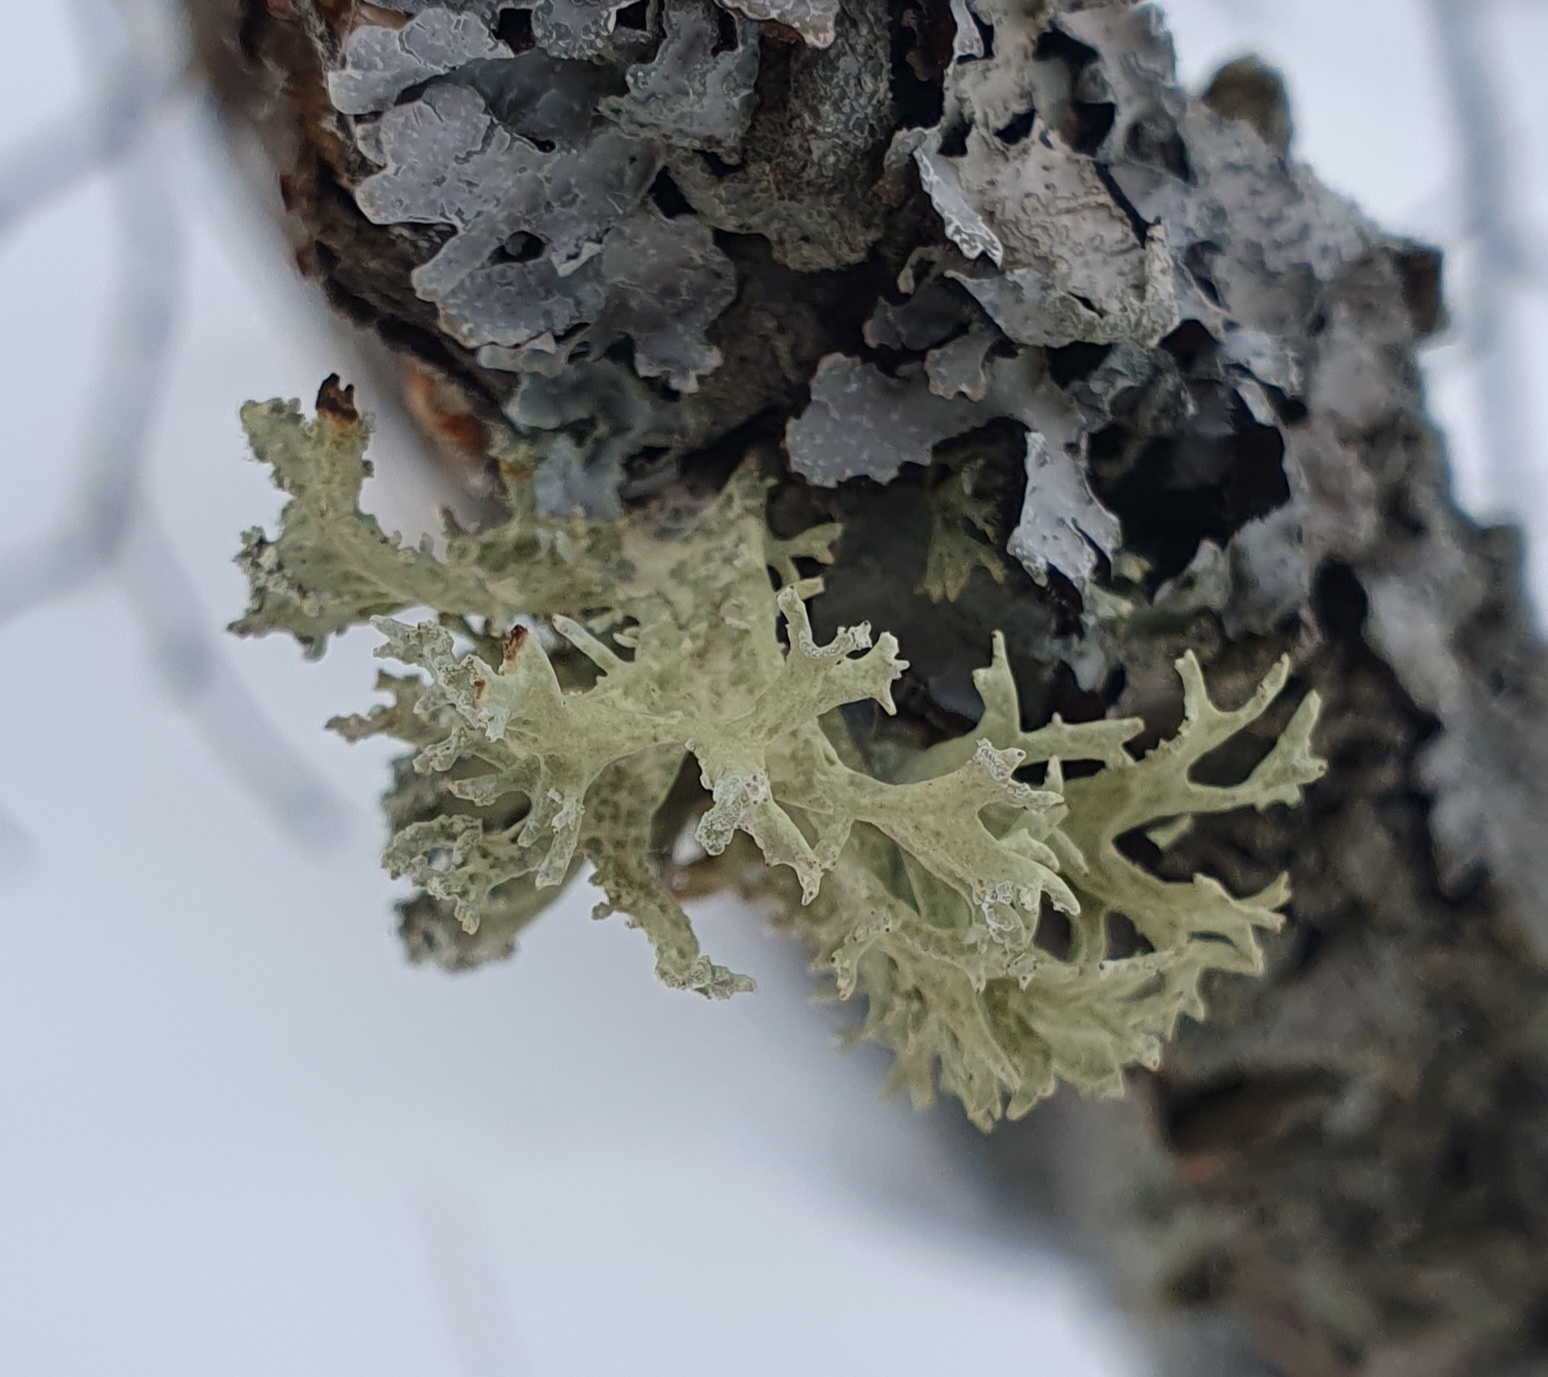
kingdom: Fungi
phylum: Ascomycota
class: Lecanoromycetes
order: Lecanorales
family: Parmeliaceae
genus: Evernia
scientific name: Evernia prunastri
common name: Oak moss
